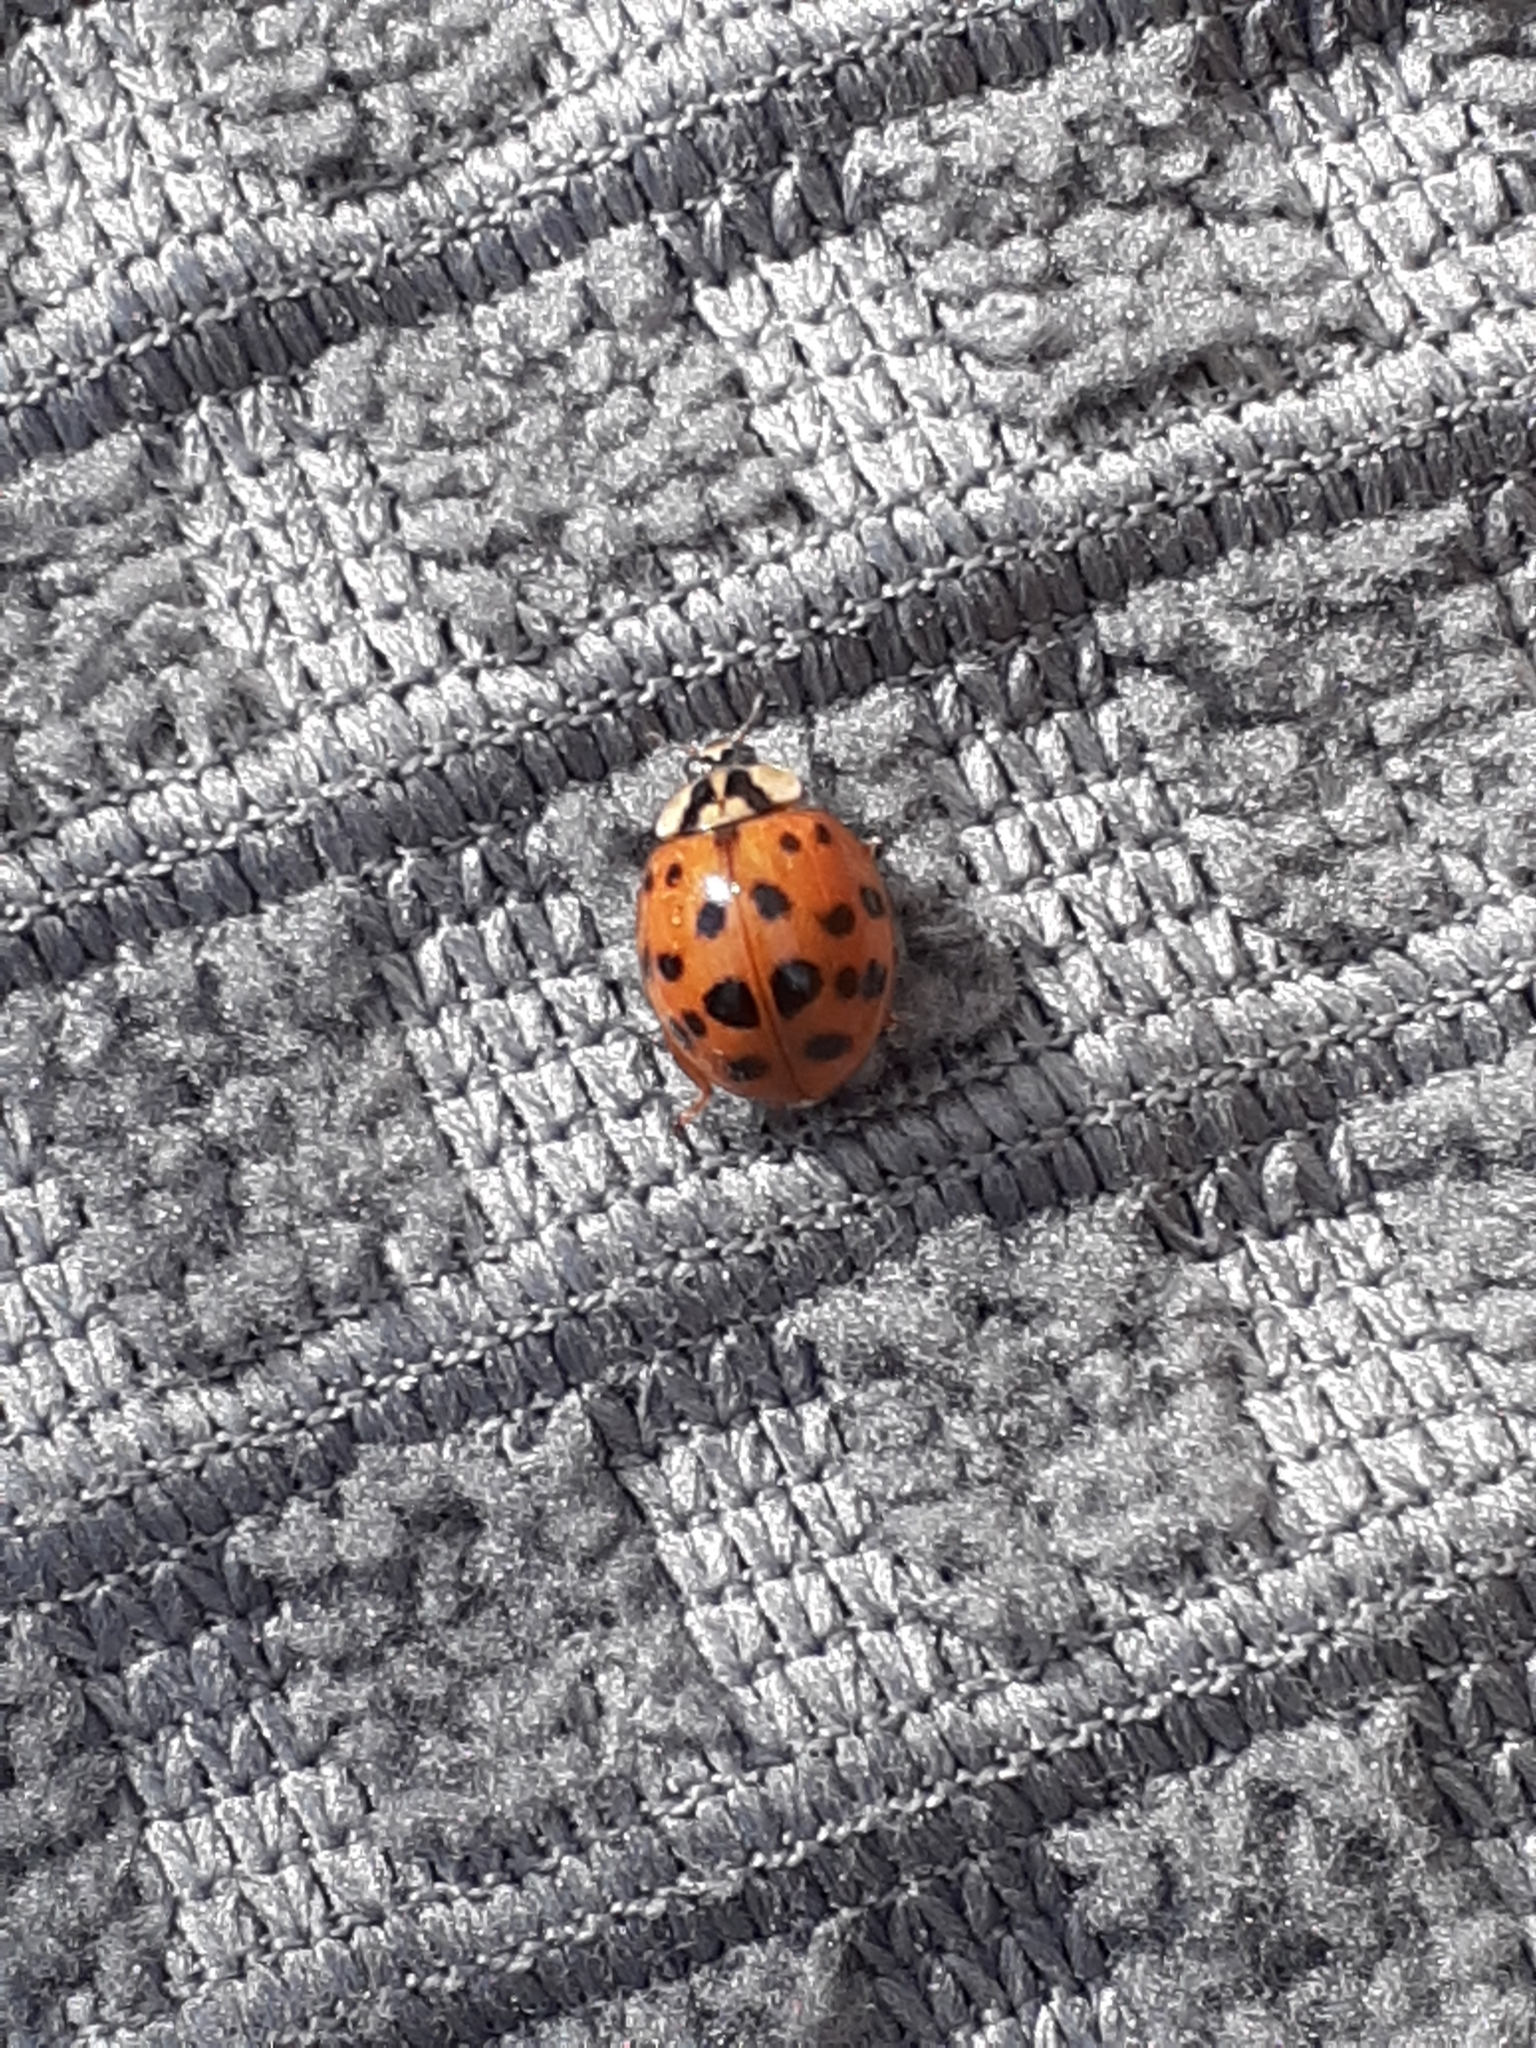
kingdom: Animalia
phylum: Arthropoda
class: Insecta
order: Coleoptera
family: Coccinellidae
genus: Harmonia
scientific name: Harmonia axyridis
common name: Harlequin ladybird
